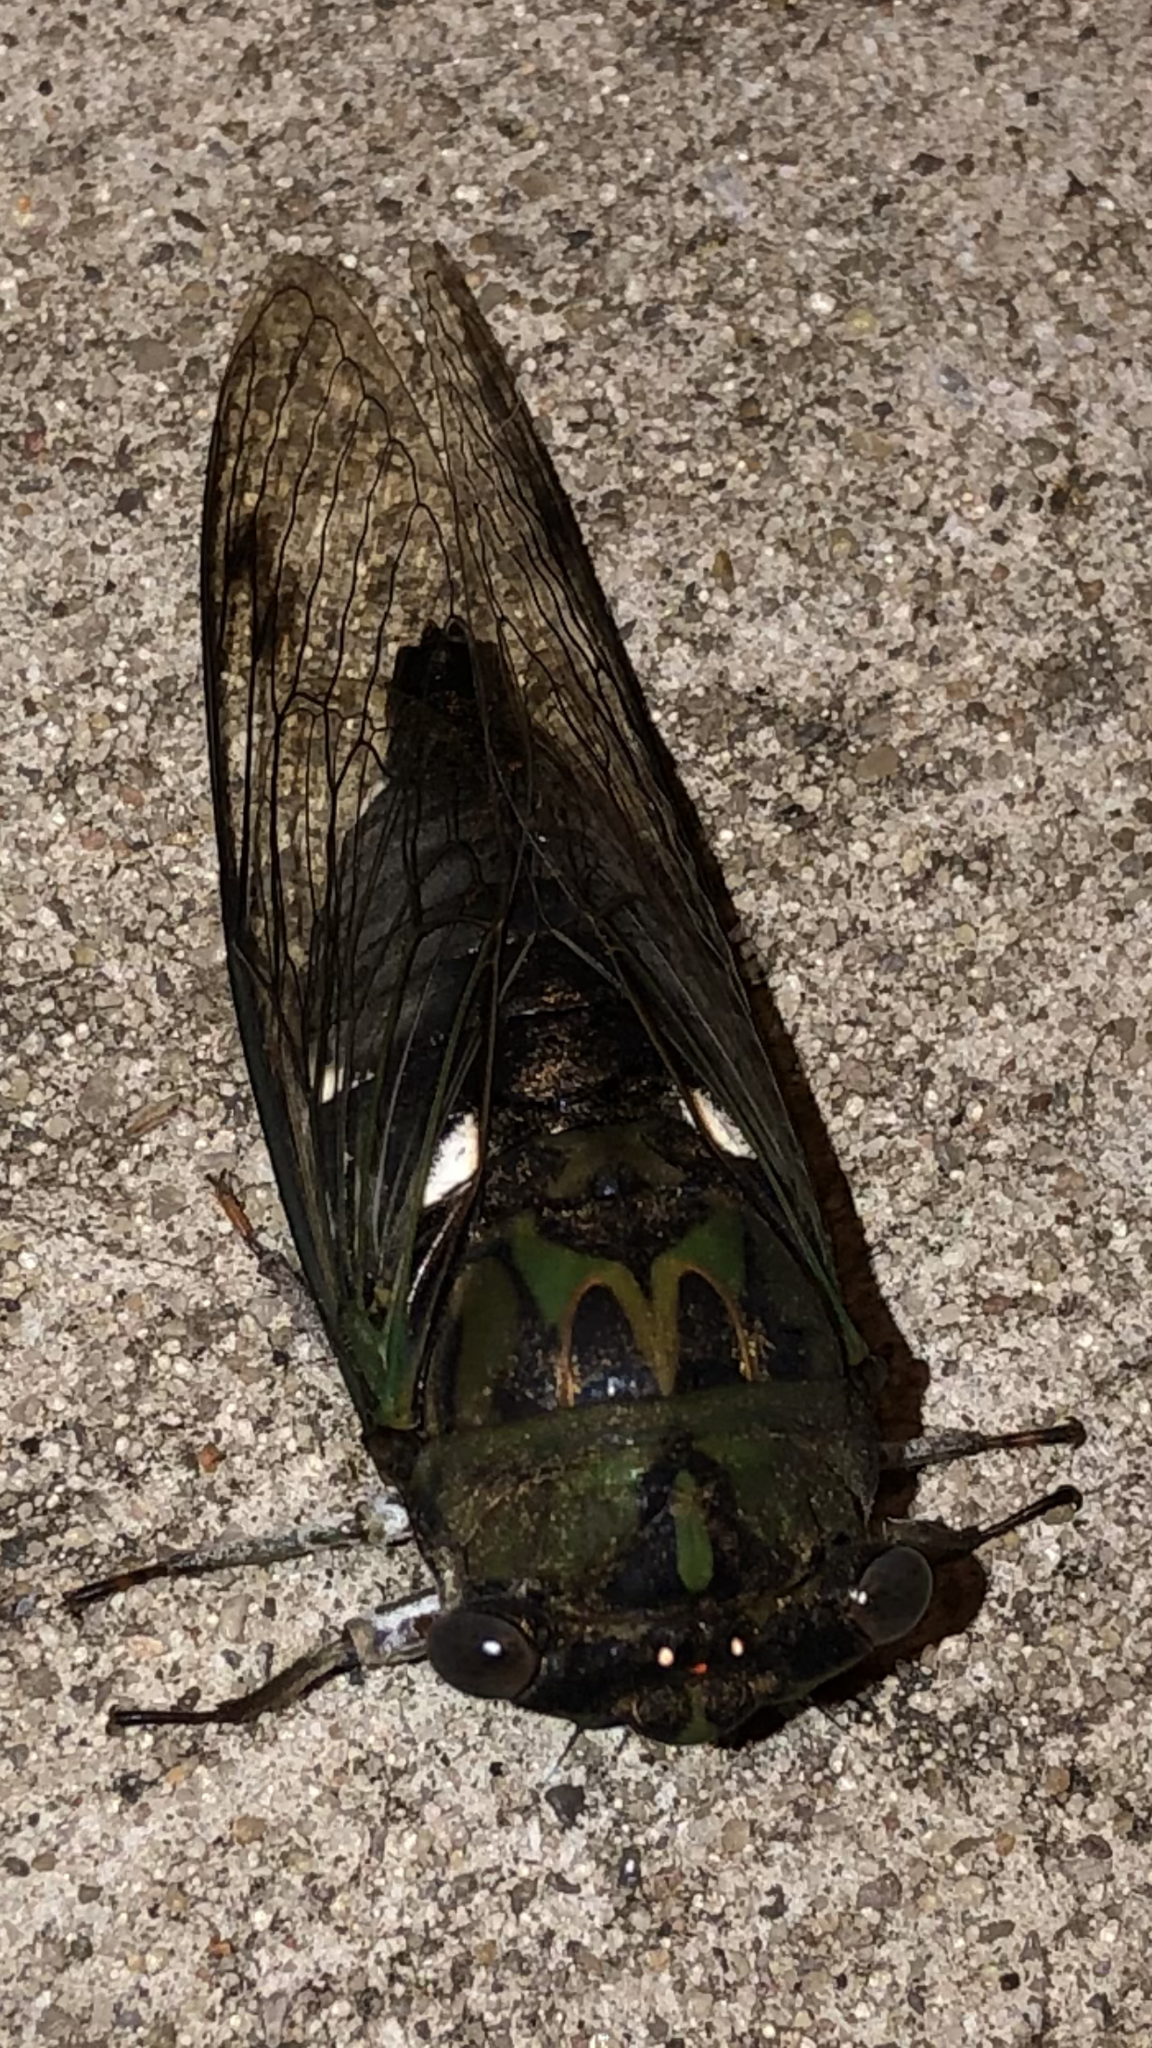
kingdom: Animalia
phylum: Arthropoda
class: Insecta
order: Hemiptera
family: Cicadidae
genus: Neotibicen
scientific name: Neotibicen pruinosus
